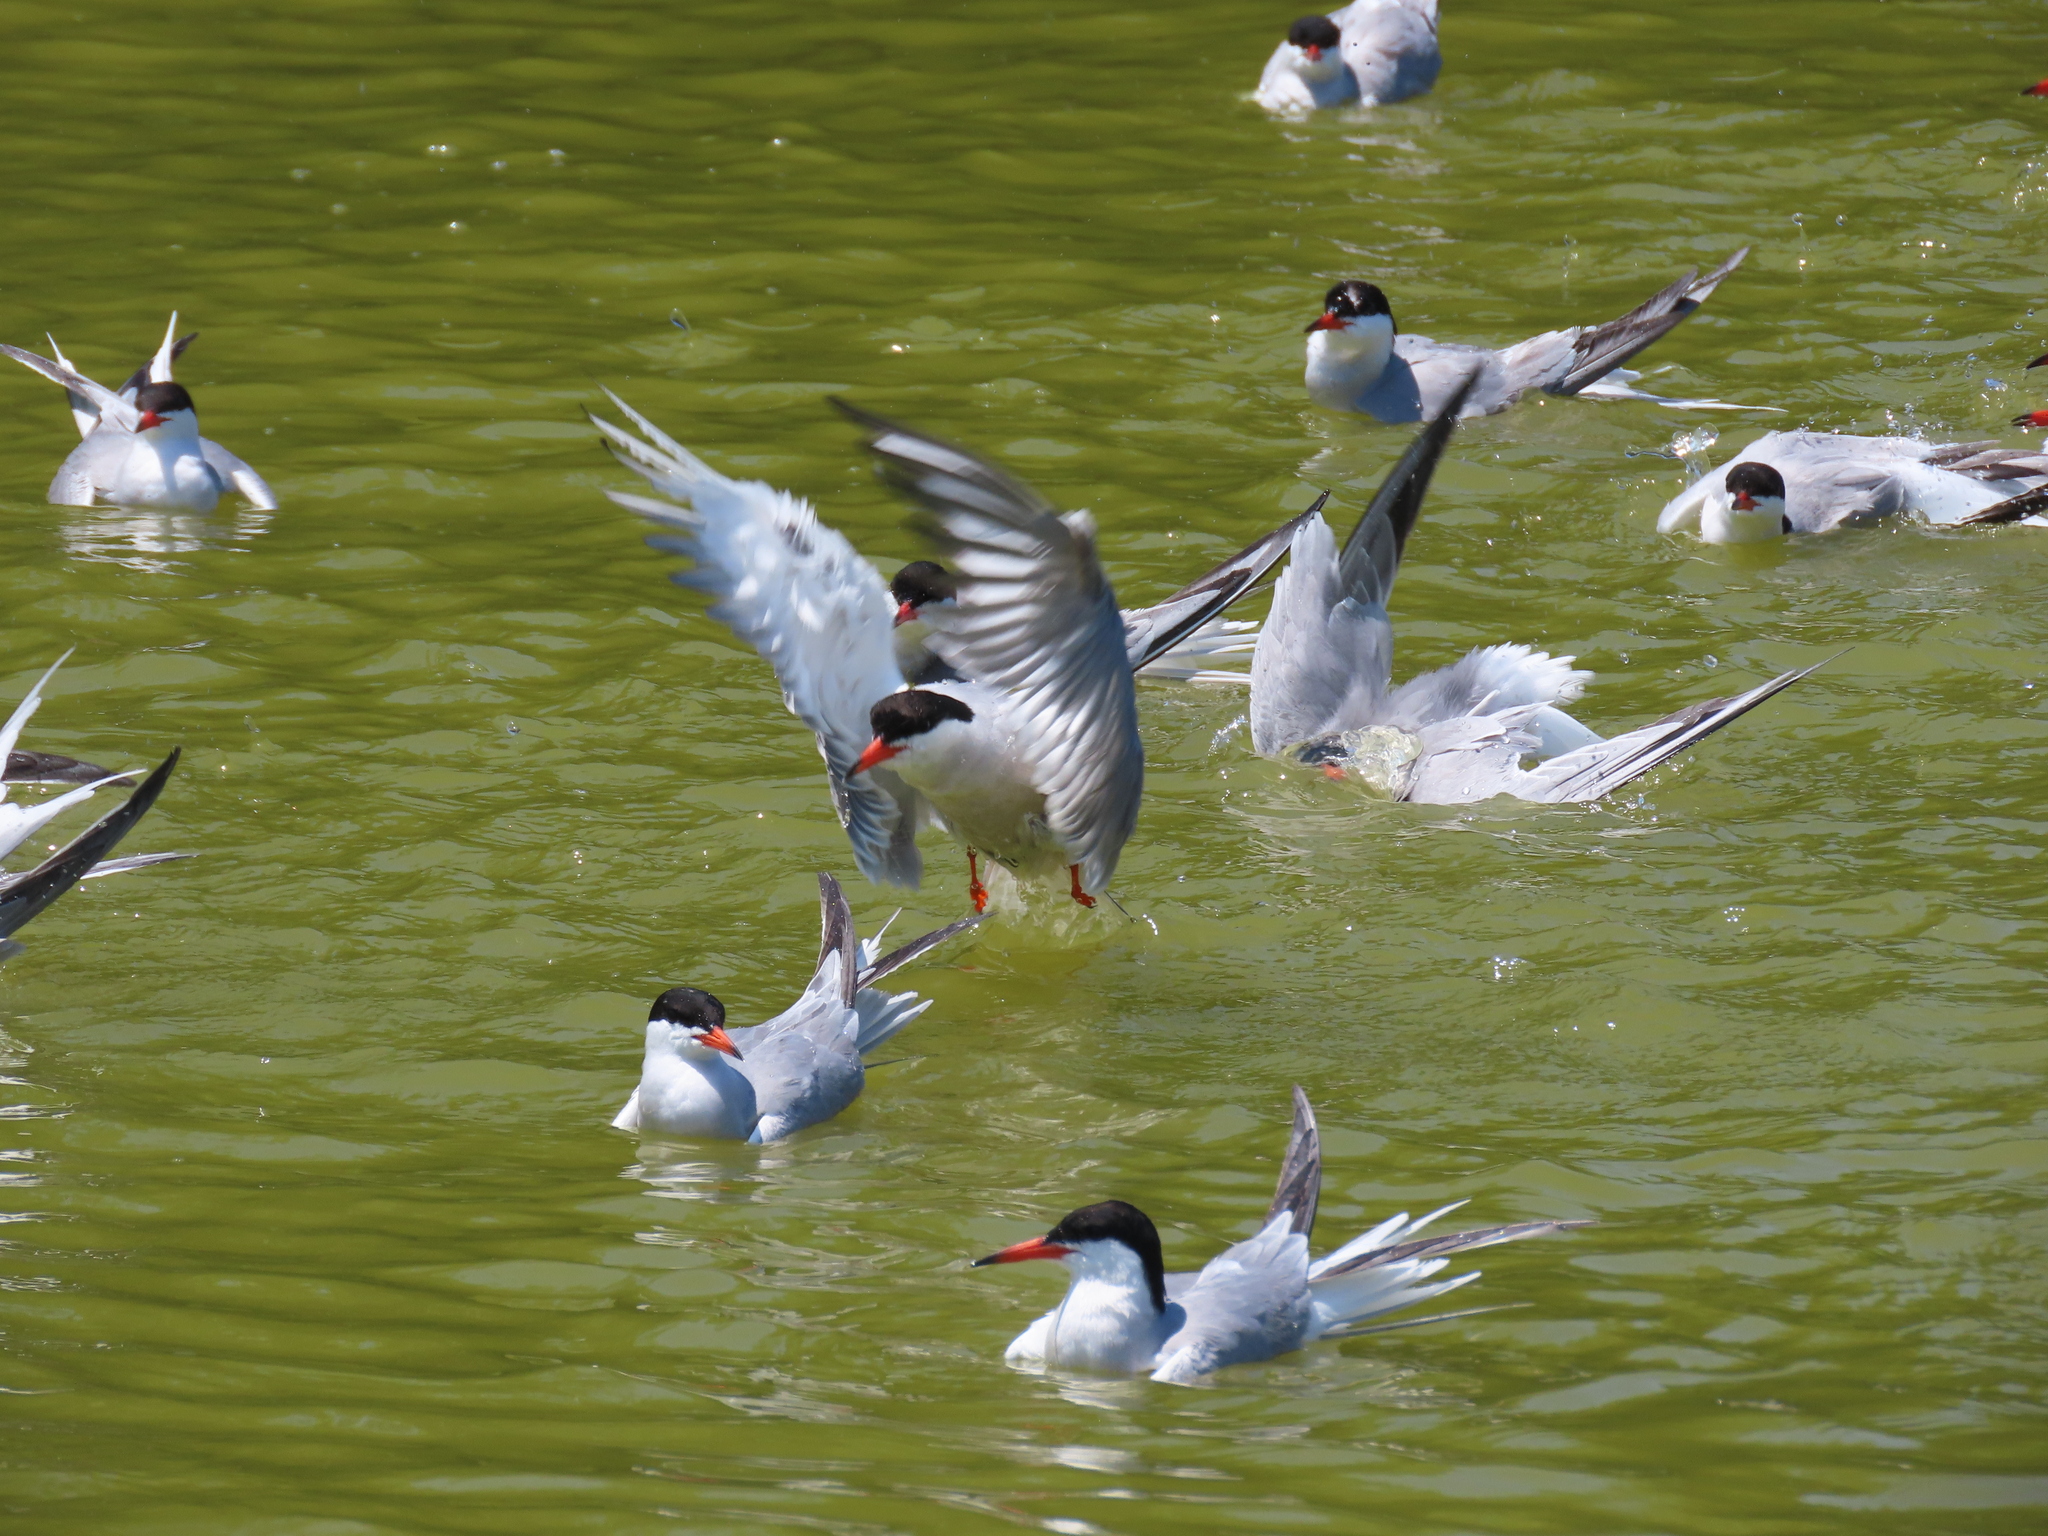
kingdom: Animalia
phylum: Chordata
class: Aves
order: Charadriiformes
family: Laridae
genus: Sterna
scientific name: Sterna hirundo
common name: Common tern
